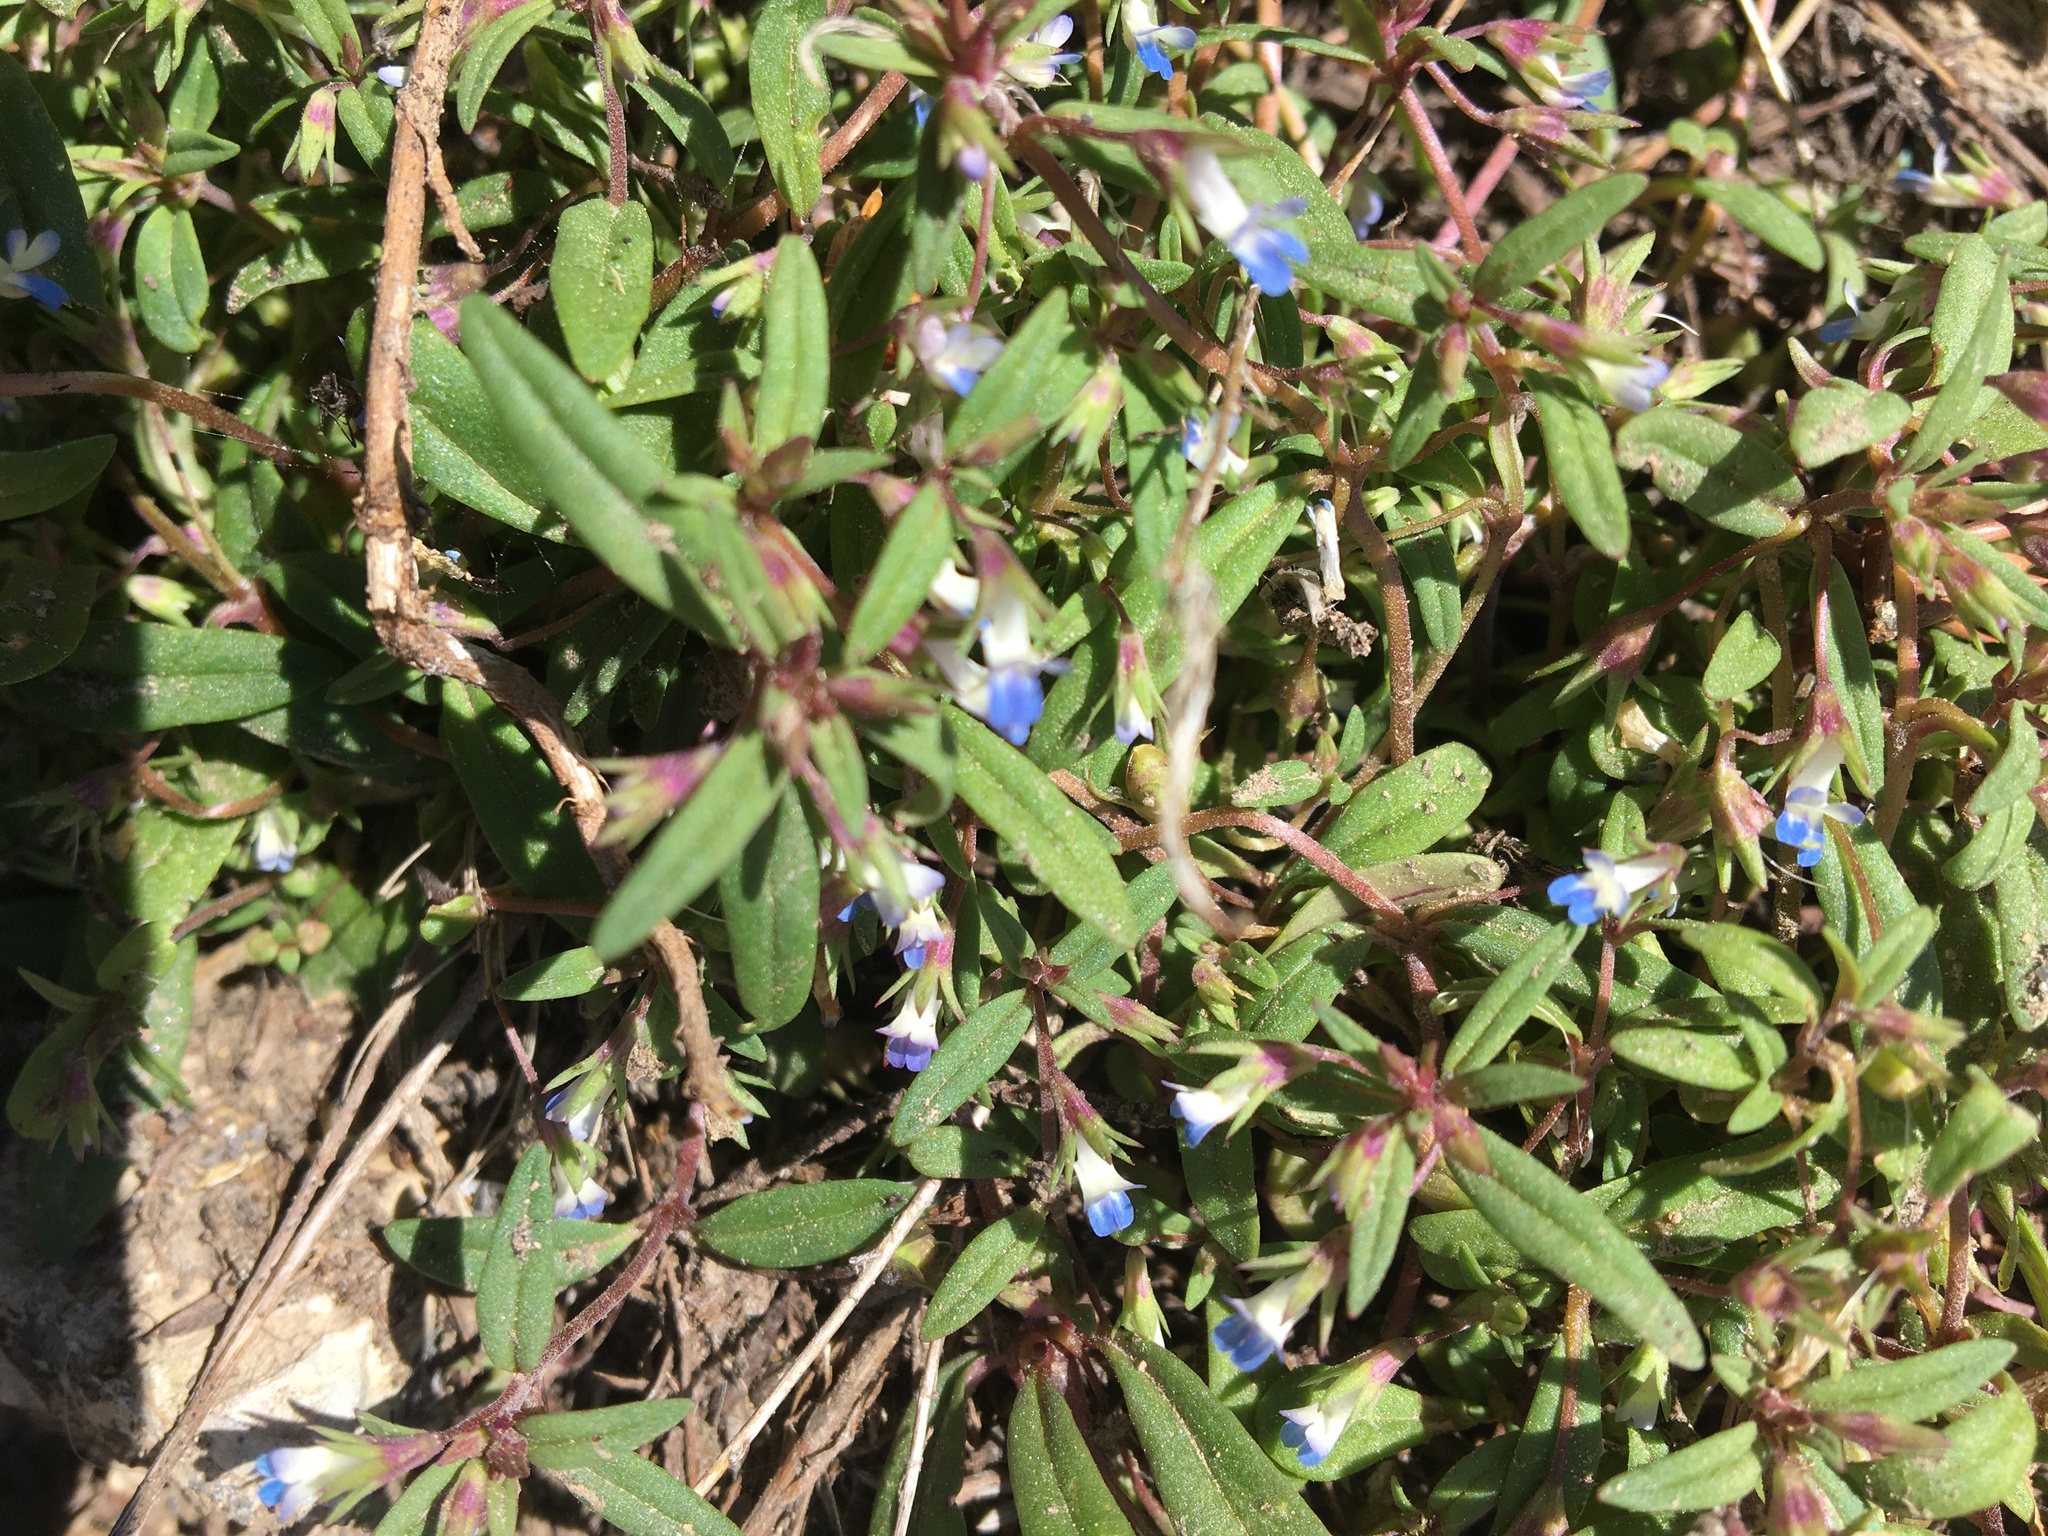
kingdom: Plantae
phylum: Tracheophyta
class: Magnoliopsida
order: Lamiales
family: Plantaginaceae
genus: Collinsia
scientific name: Collinsia parviflora
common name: Blue-lips
